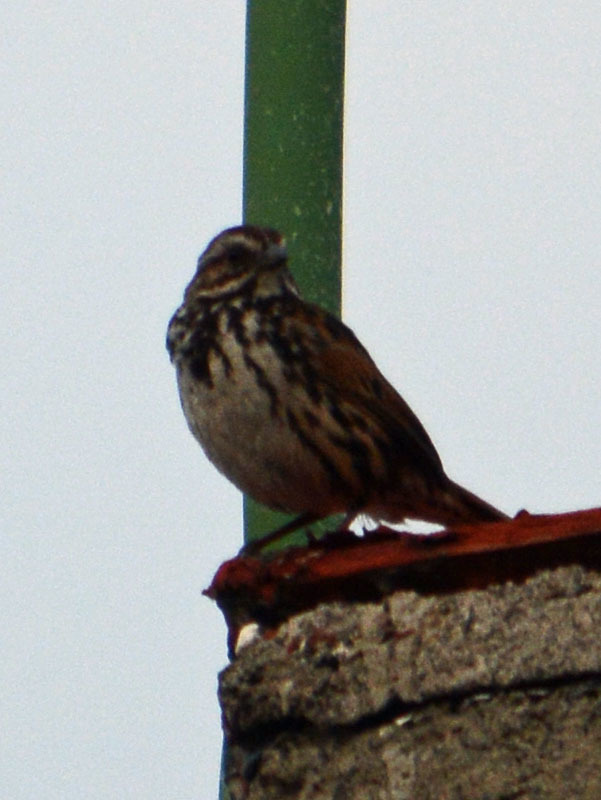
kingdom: Animalia
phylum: Chordata
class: Aves
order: Passeriformes
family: Passerellidae
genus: Melospiza
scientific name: Melospiza melodia
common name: Song sparrow
